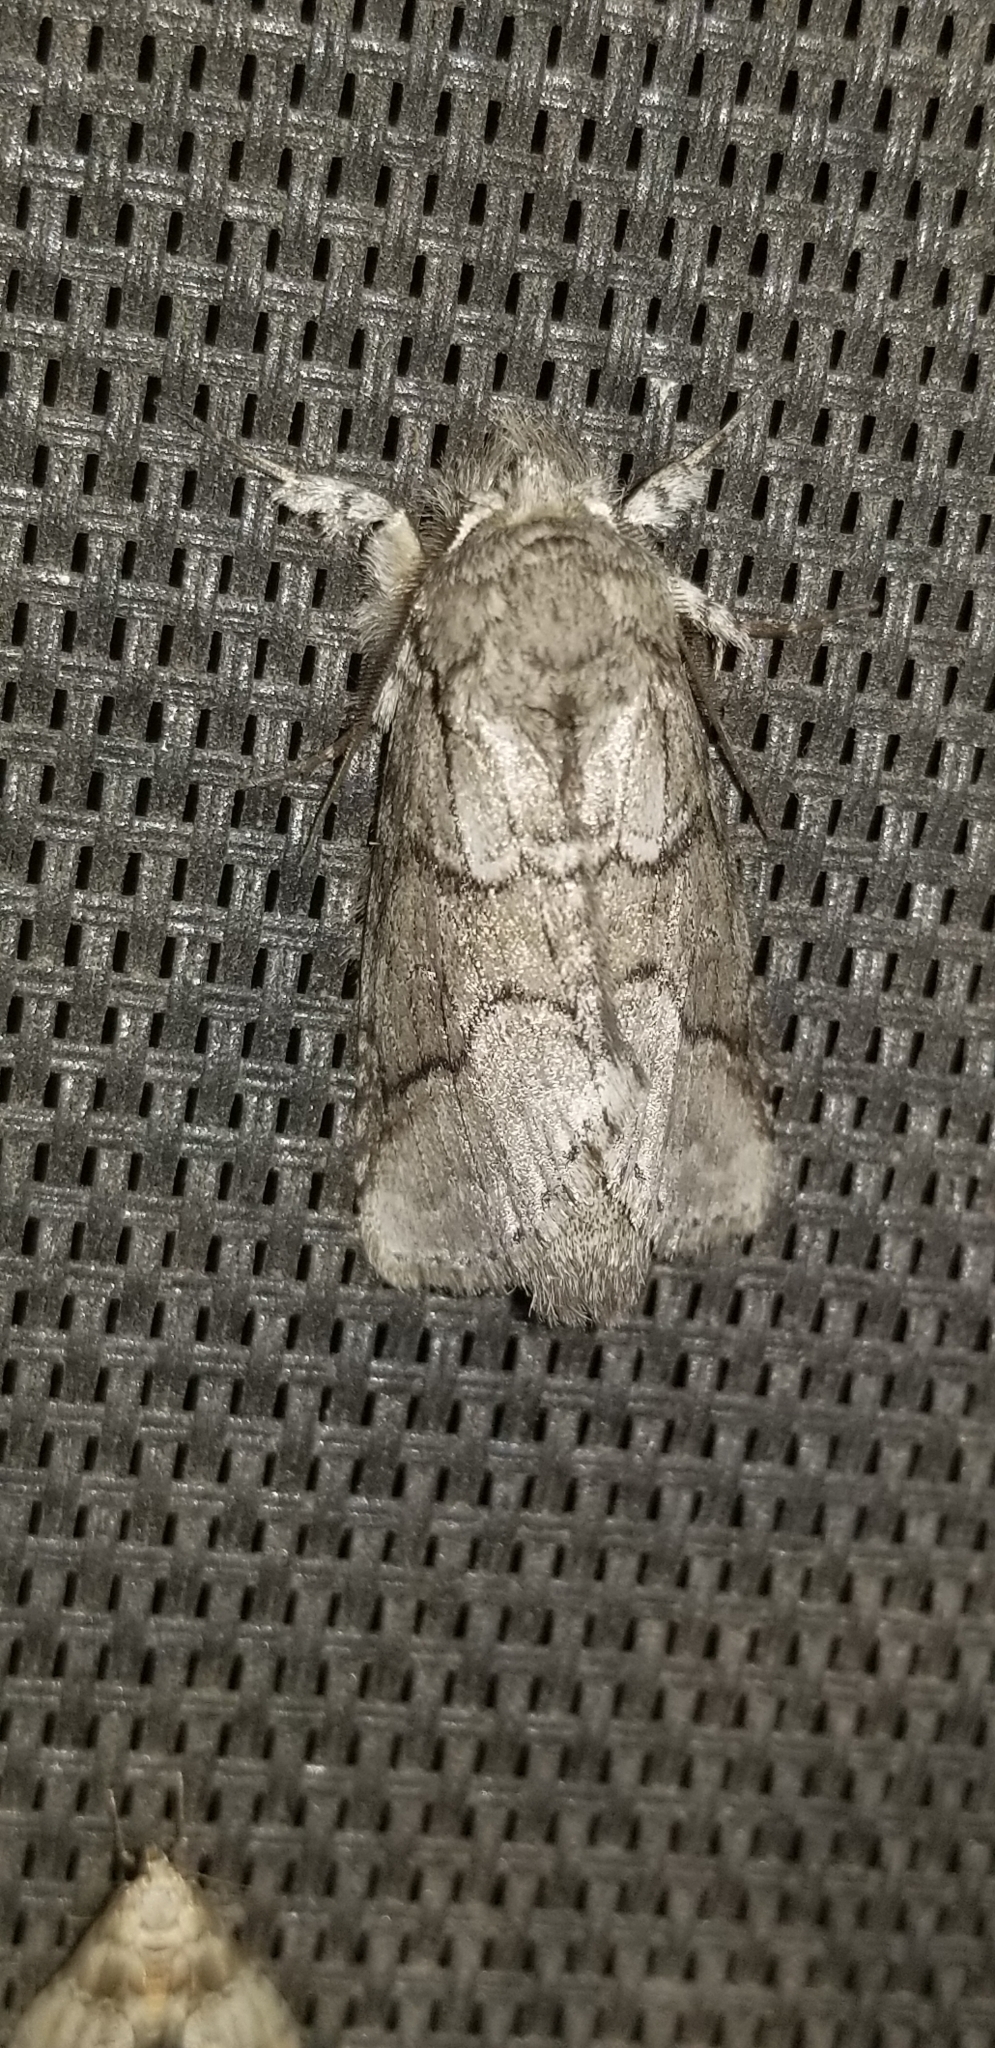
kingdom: Animalia
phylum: Arthropoda
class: Insecta
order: Lepidoptera
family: Notodontidae
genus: Lochmaeus
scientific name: Lochmaeus bilineata
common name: Double-lined prominent
